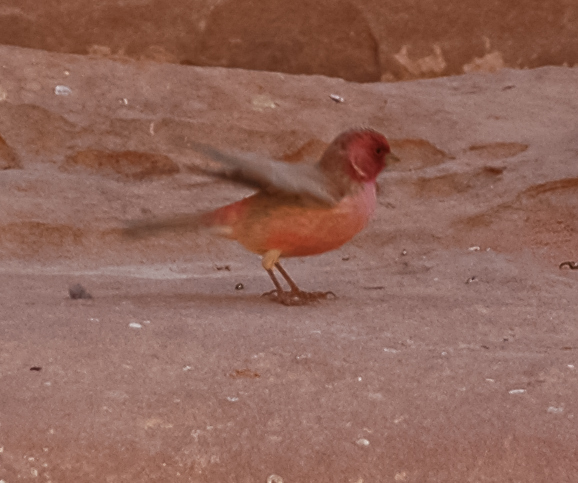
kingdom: Animalia
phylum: Chordata
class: Aves
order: Passeriformes
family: Fringillidae
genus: Carpodacus
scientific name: Carpodacus synoicus
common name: Sinai rosefinch
